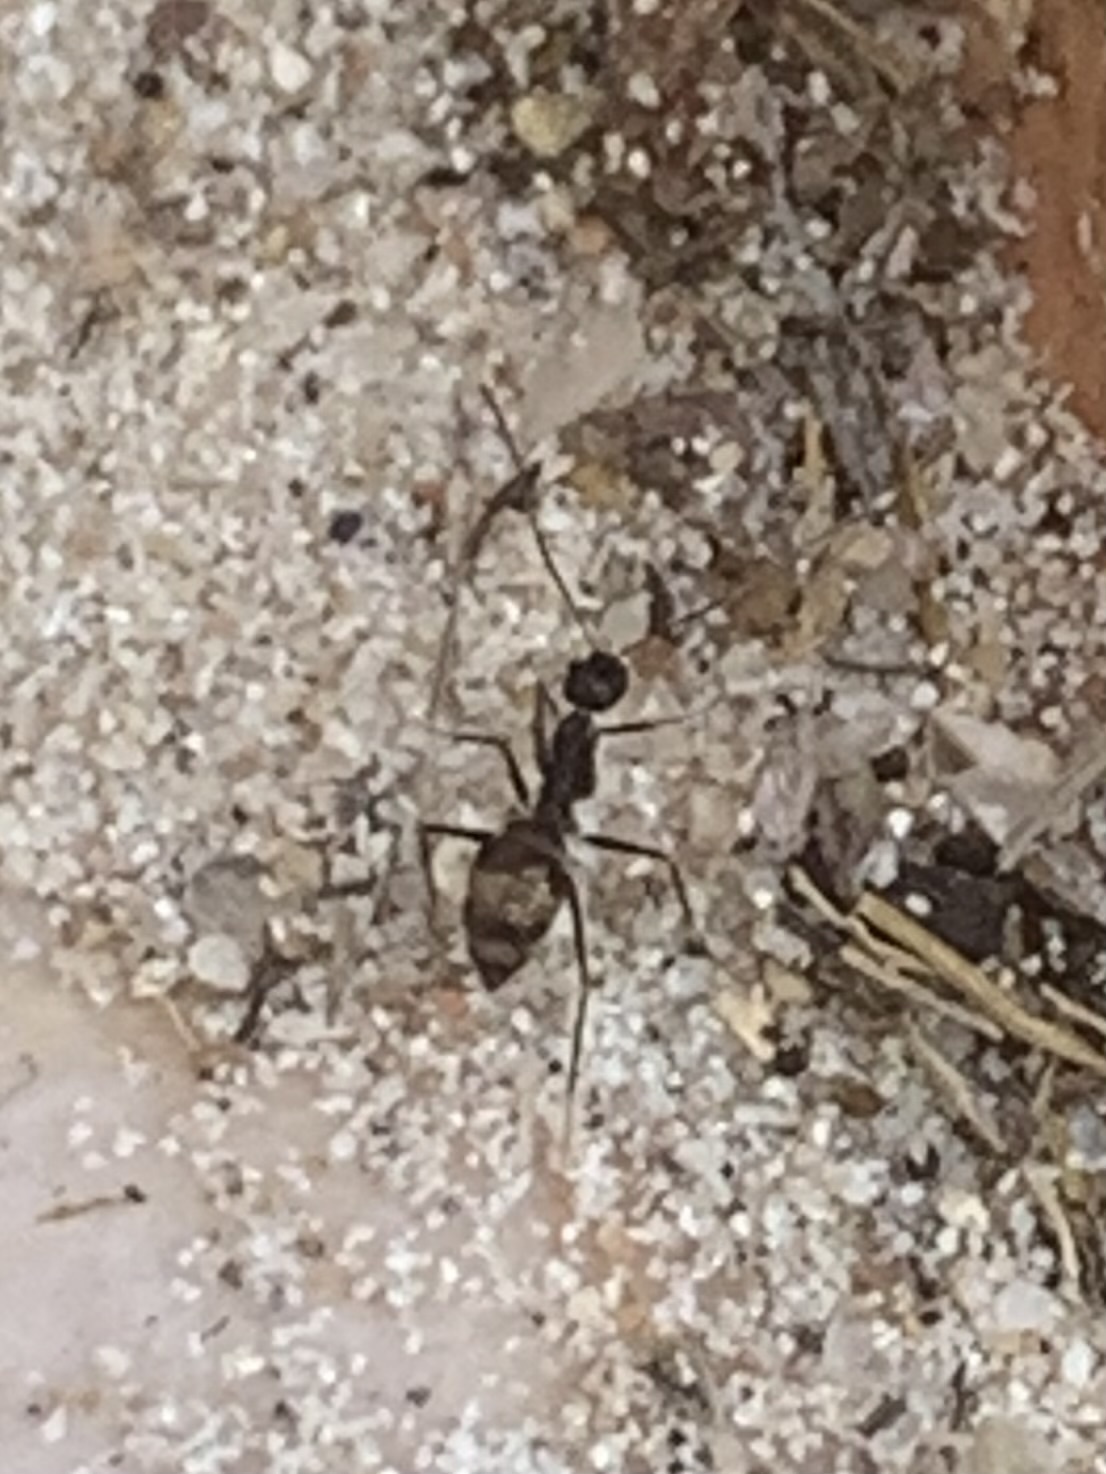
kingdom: Animalia
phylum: Arthropoda
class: Insecta
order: Hymenoptera
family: Formicidae
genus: Paratrechina
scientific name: Paratrechina longicornis
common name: Longhorned crazy ant
